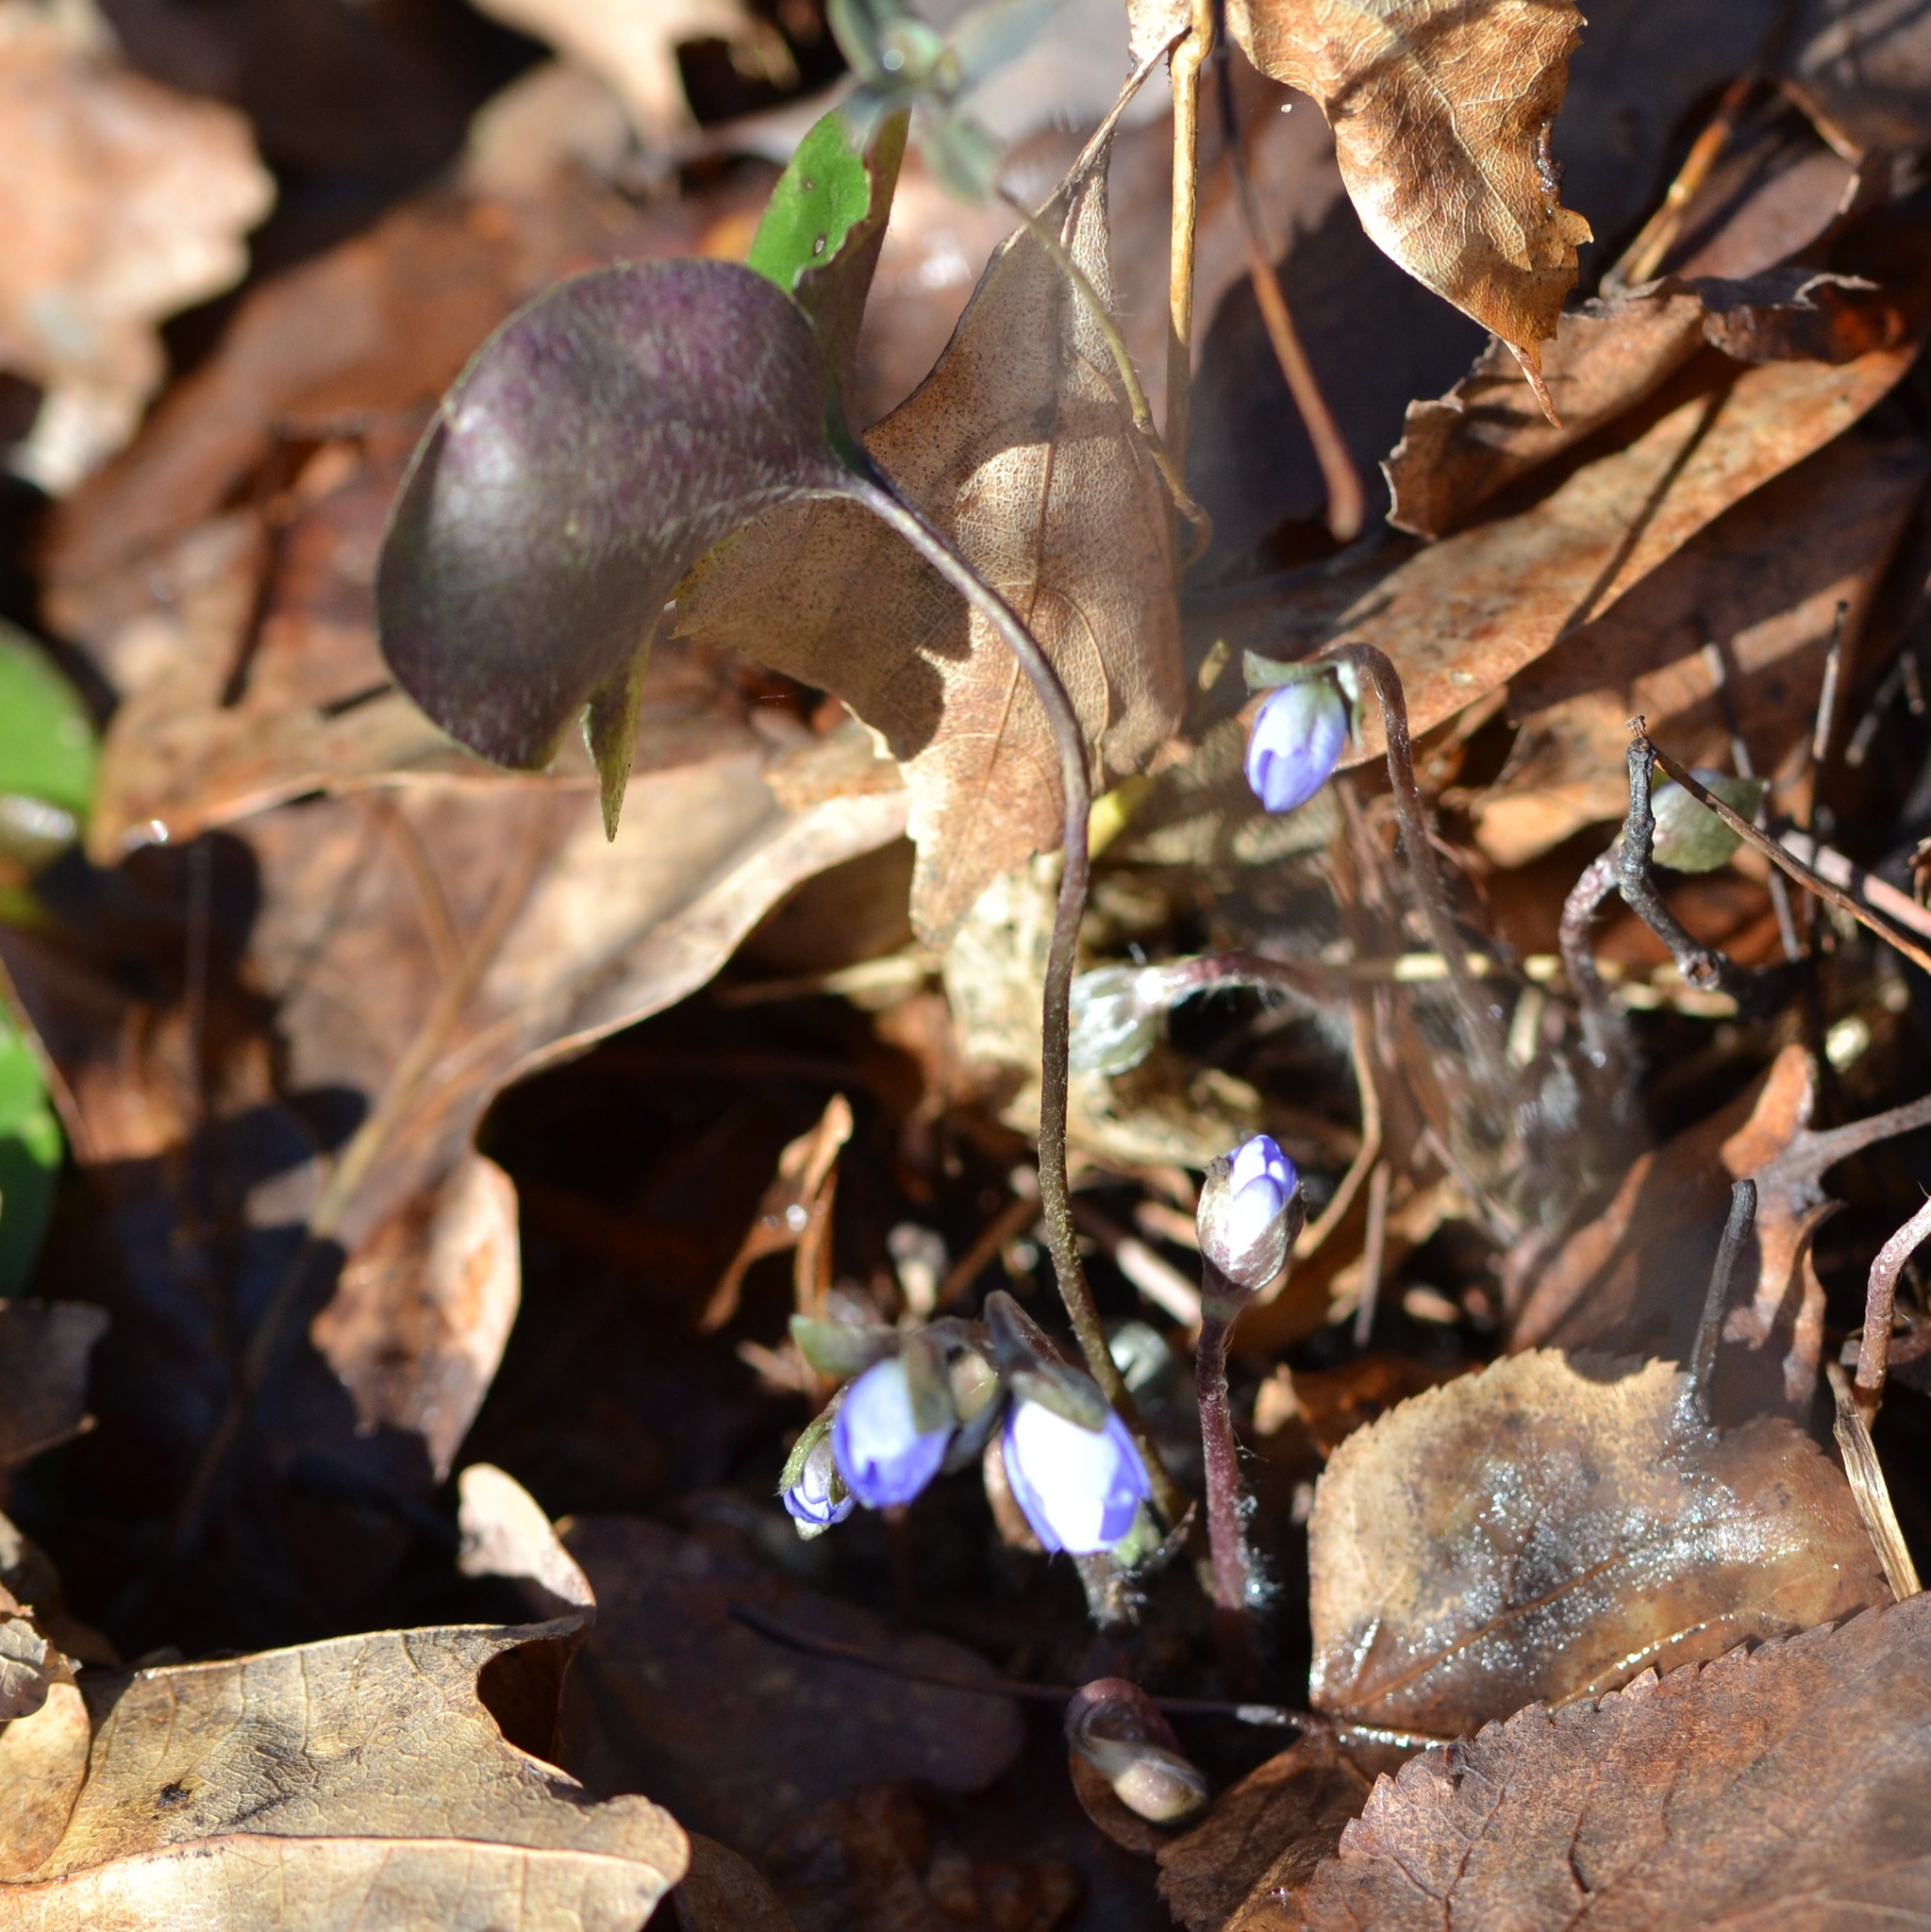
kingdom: Plantae
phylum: Tracheophyta
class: Magnoliopsida
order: Ranunculales
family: Ranunculaceae
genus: Hepatica
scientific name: Hepatica nobilis
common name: Liverleaf
